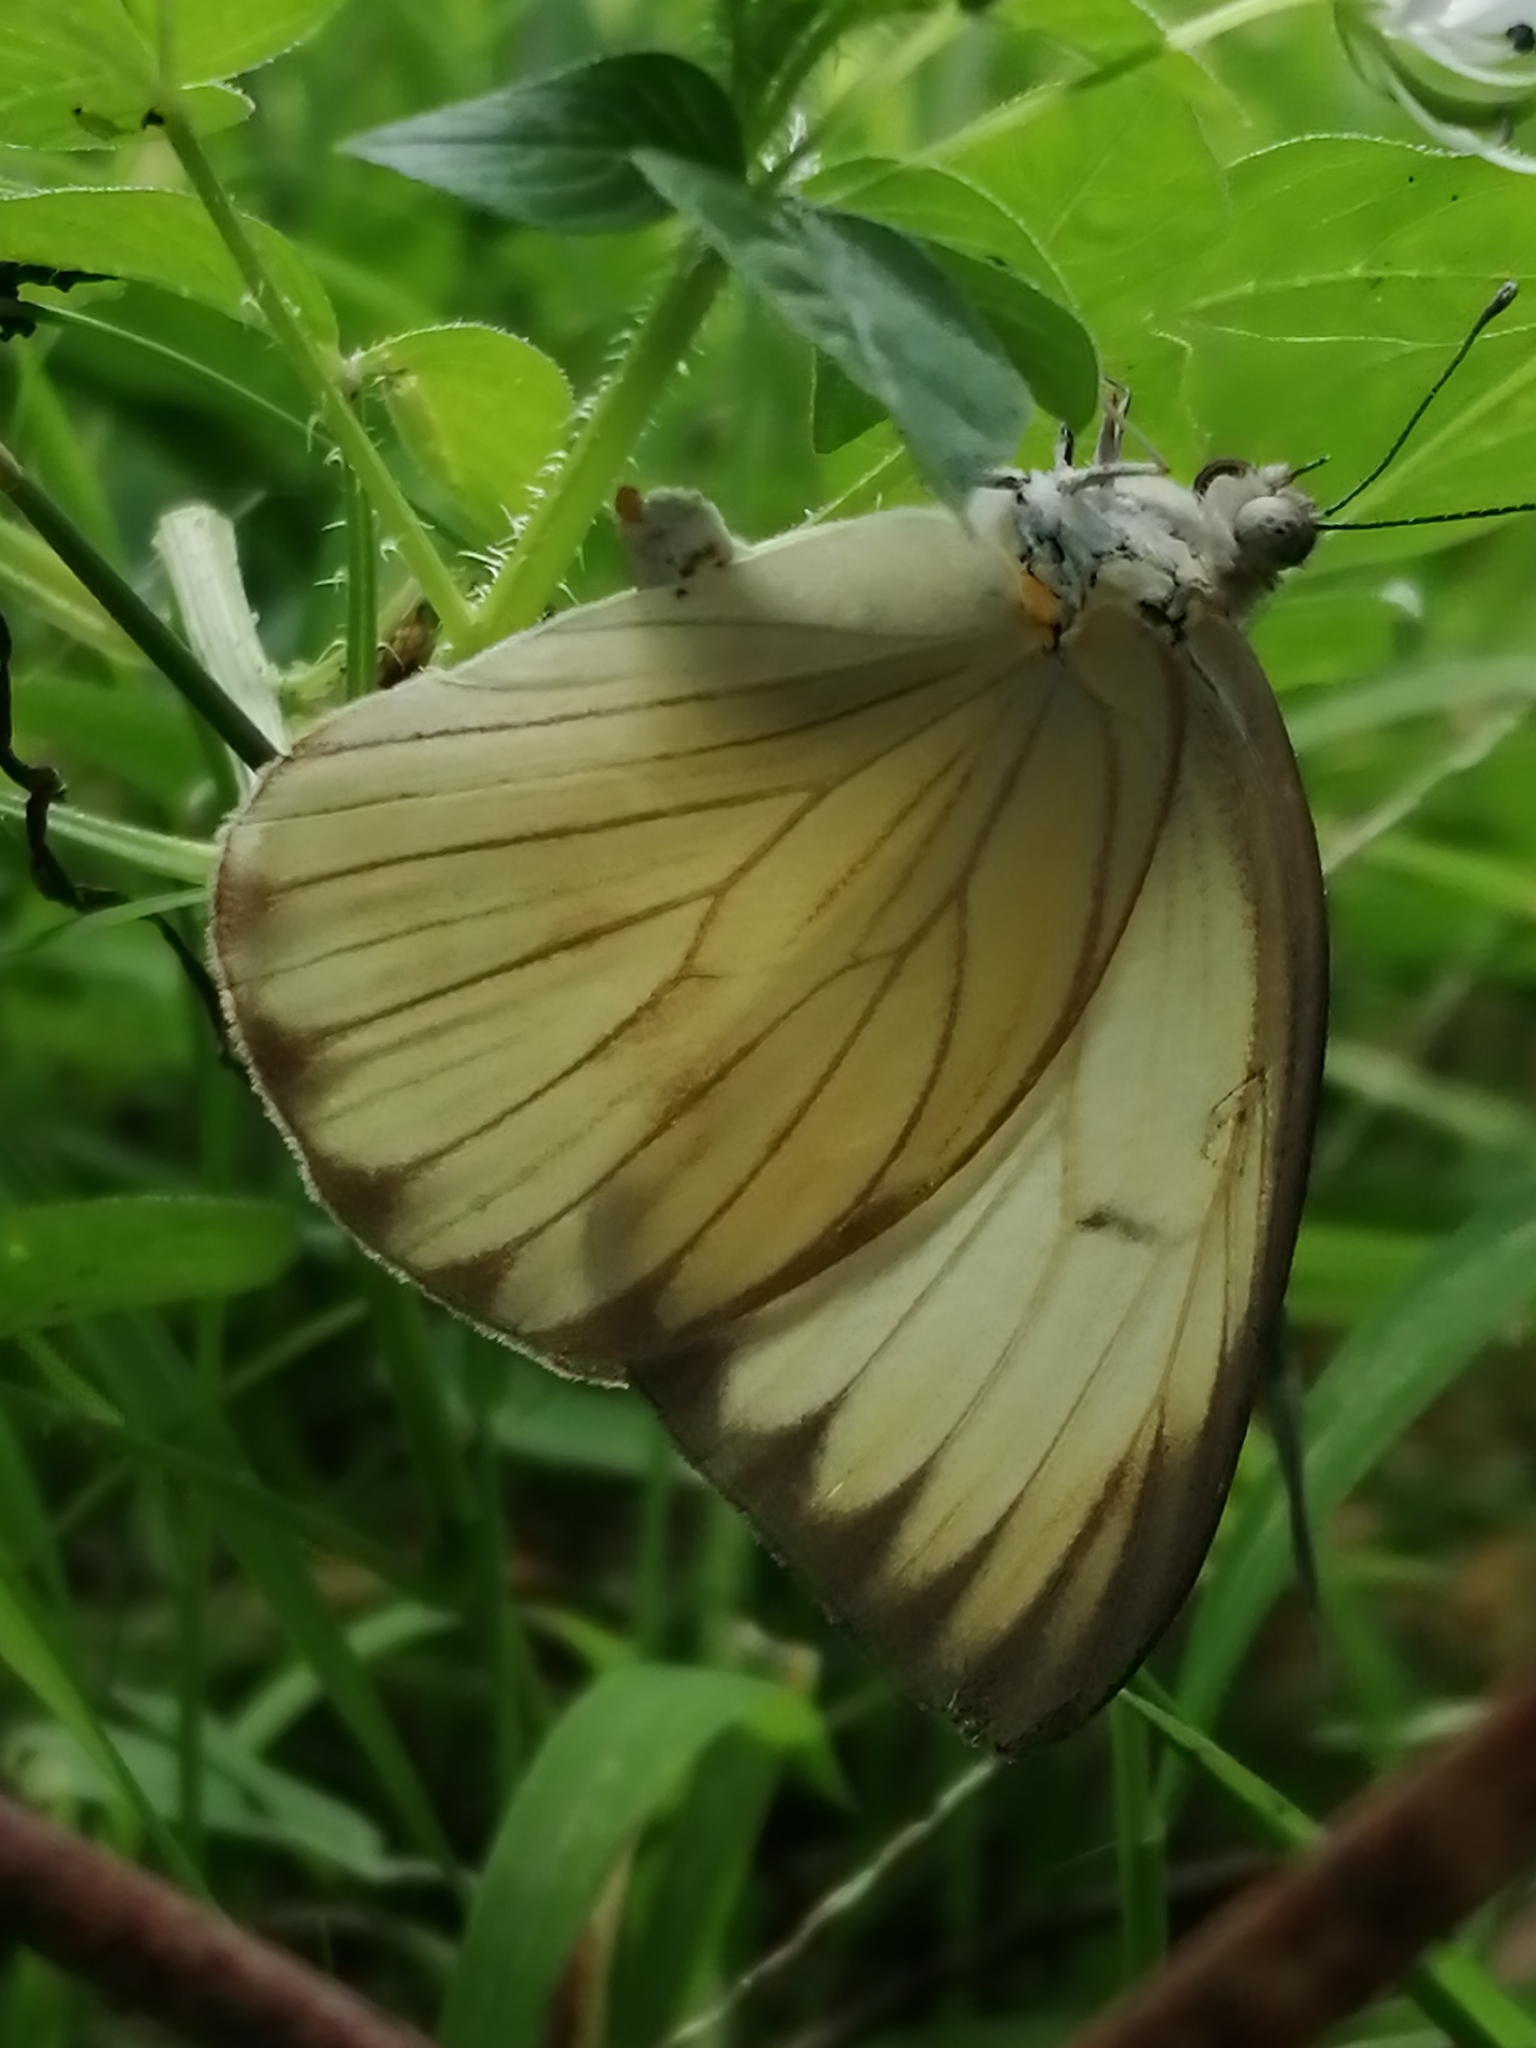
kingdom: Animalia
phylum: Arthropoda
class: Insecta
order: Lepidoptera
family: Pieridae
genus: Ascia
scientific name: Ascia monuste
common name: Great southern white
